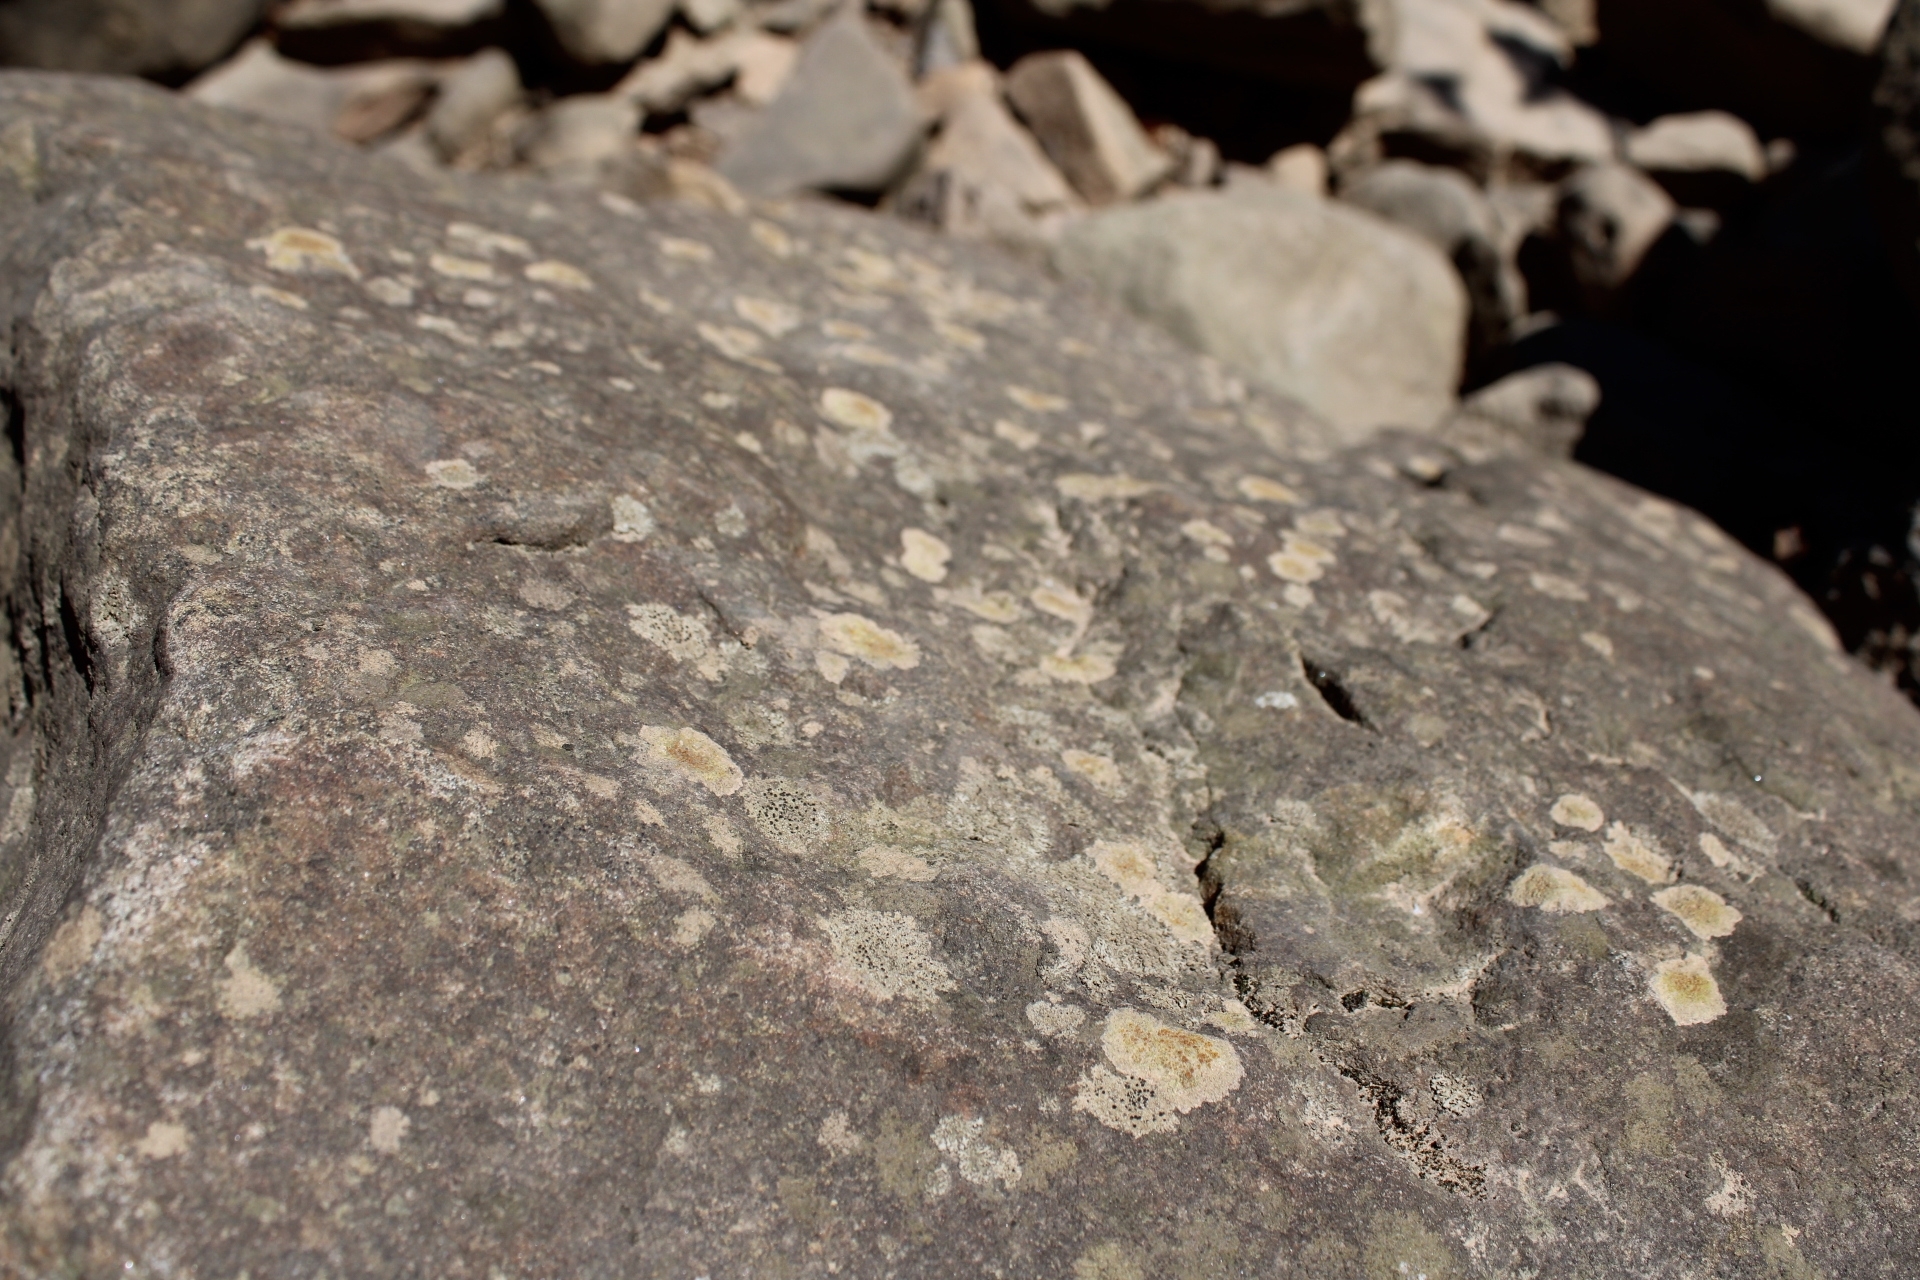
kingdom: Fungi
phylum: Ascomycota
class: Lecanoromycetes
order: Teloschistales
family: Teloschistaceae
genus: Gyalolechia
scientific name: Gyalolechia flavovirescens
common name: Sulphur firedot
